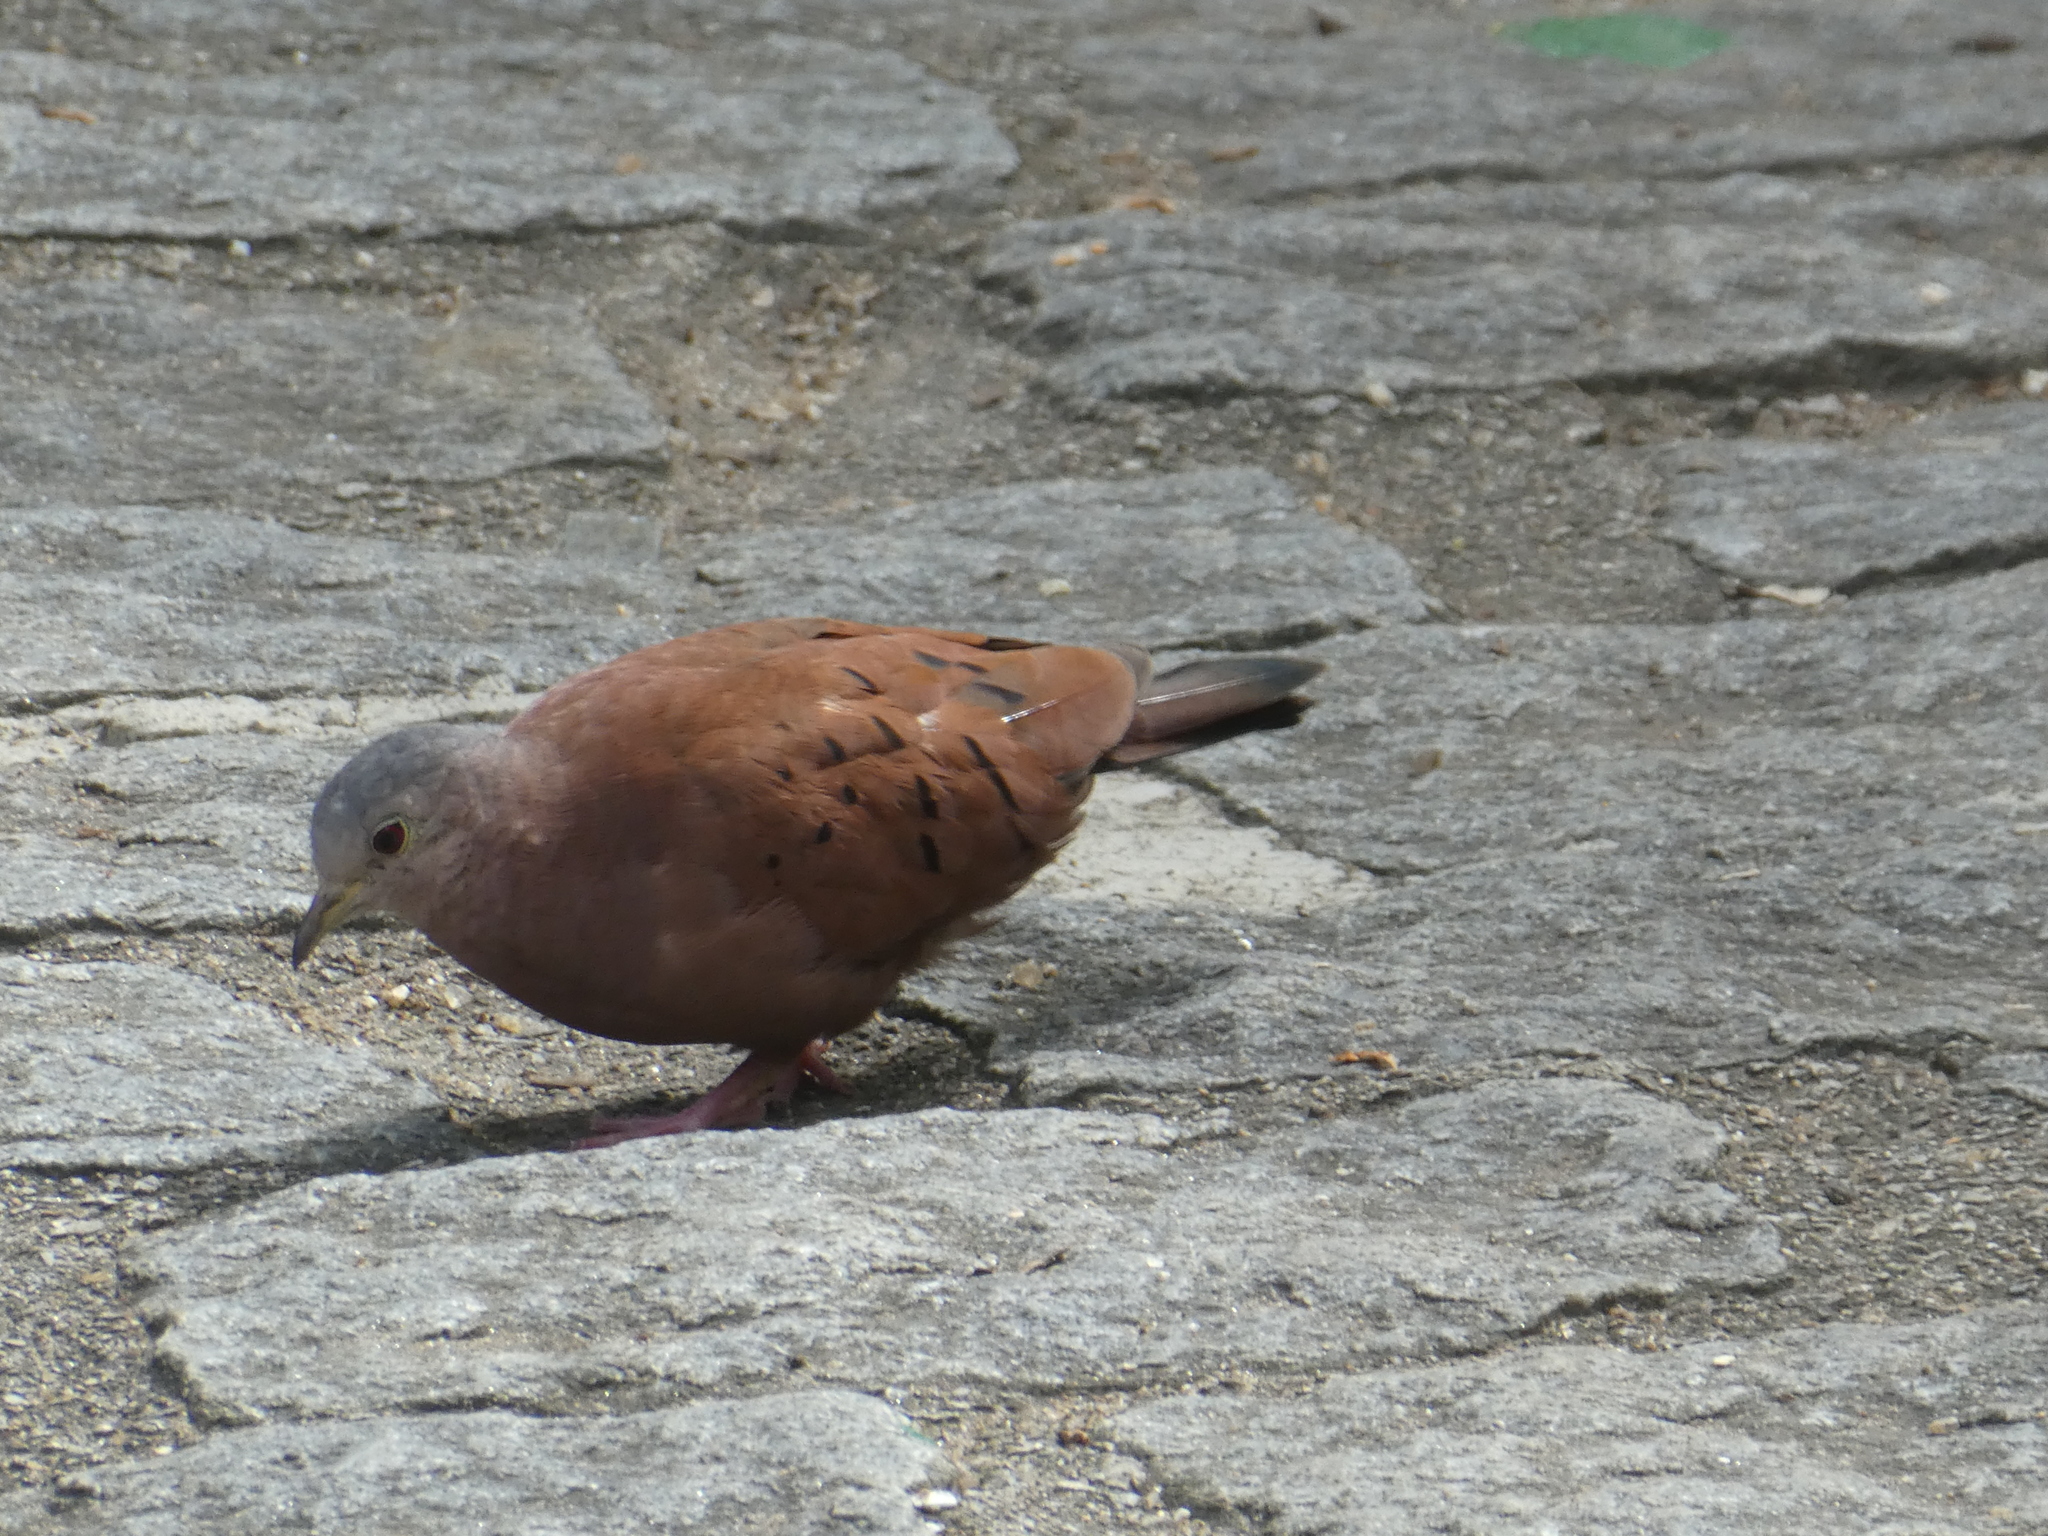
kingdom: Animalia
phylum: Chordata
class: Aves
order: Columbiformes
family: Columbidae
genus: Columbina
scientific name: Columbina talpacoti
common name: Ruddy ground dove
